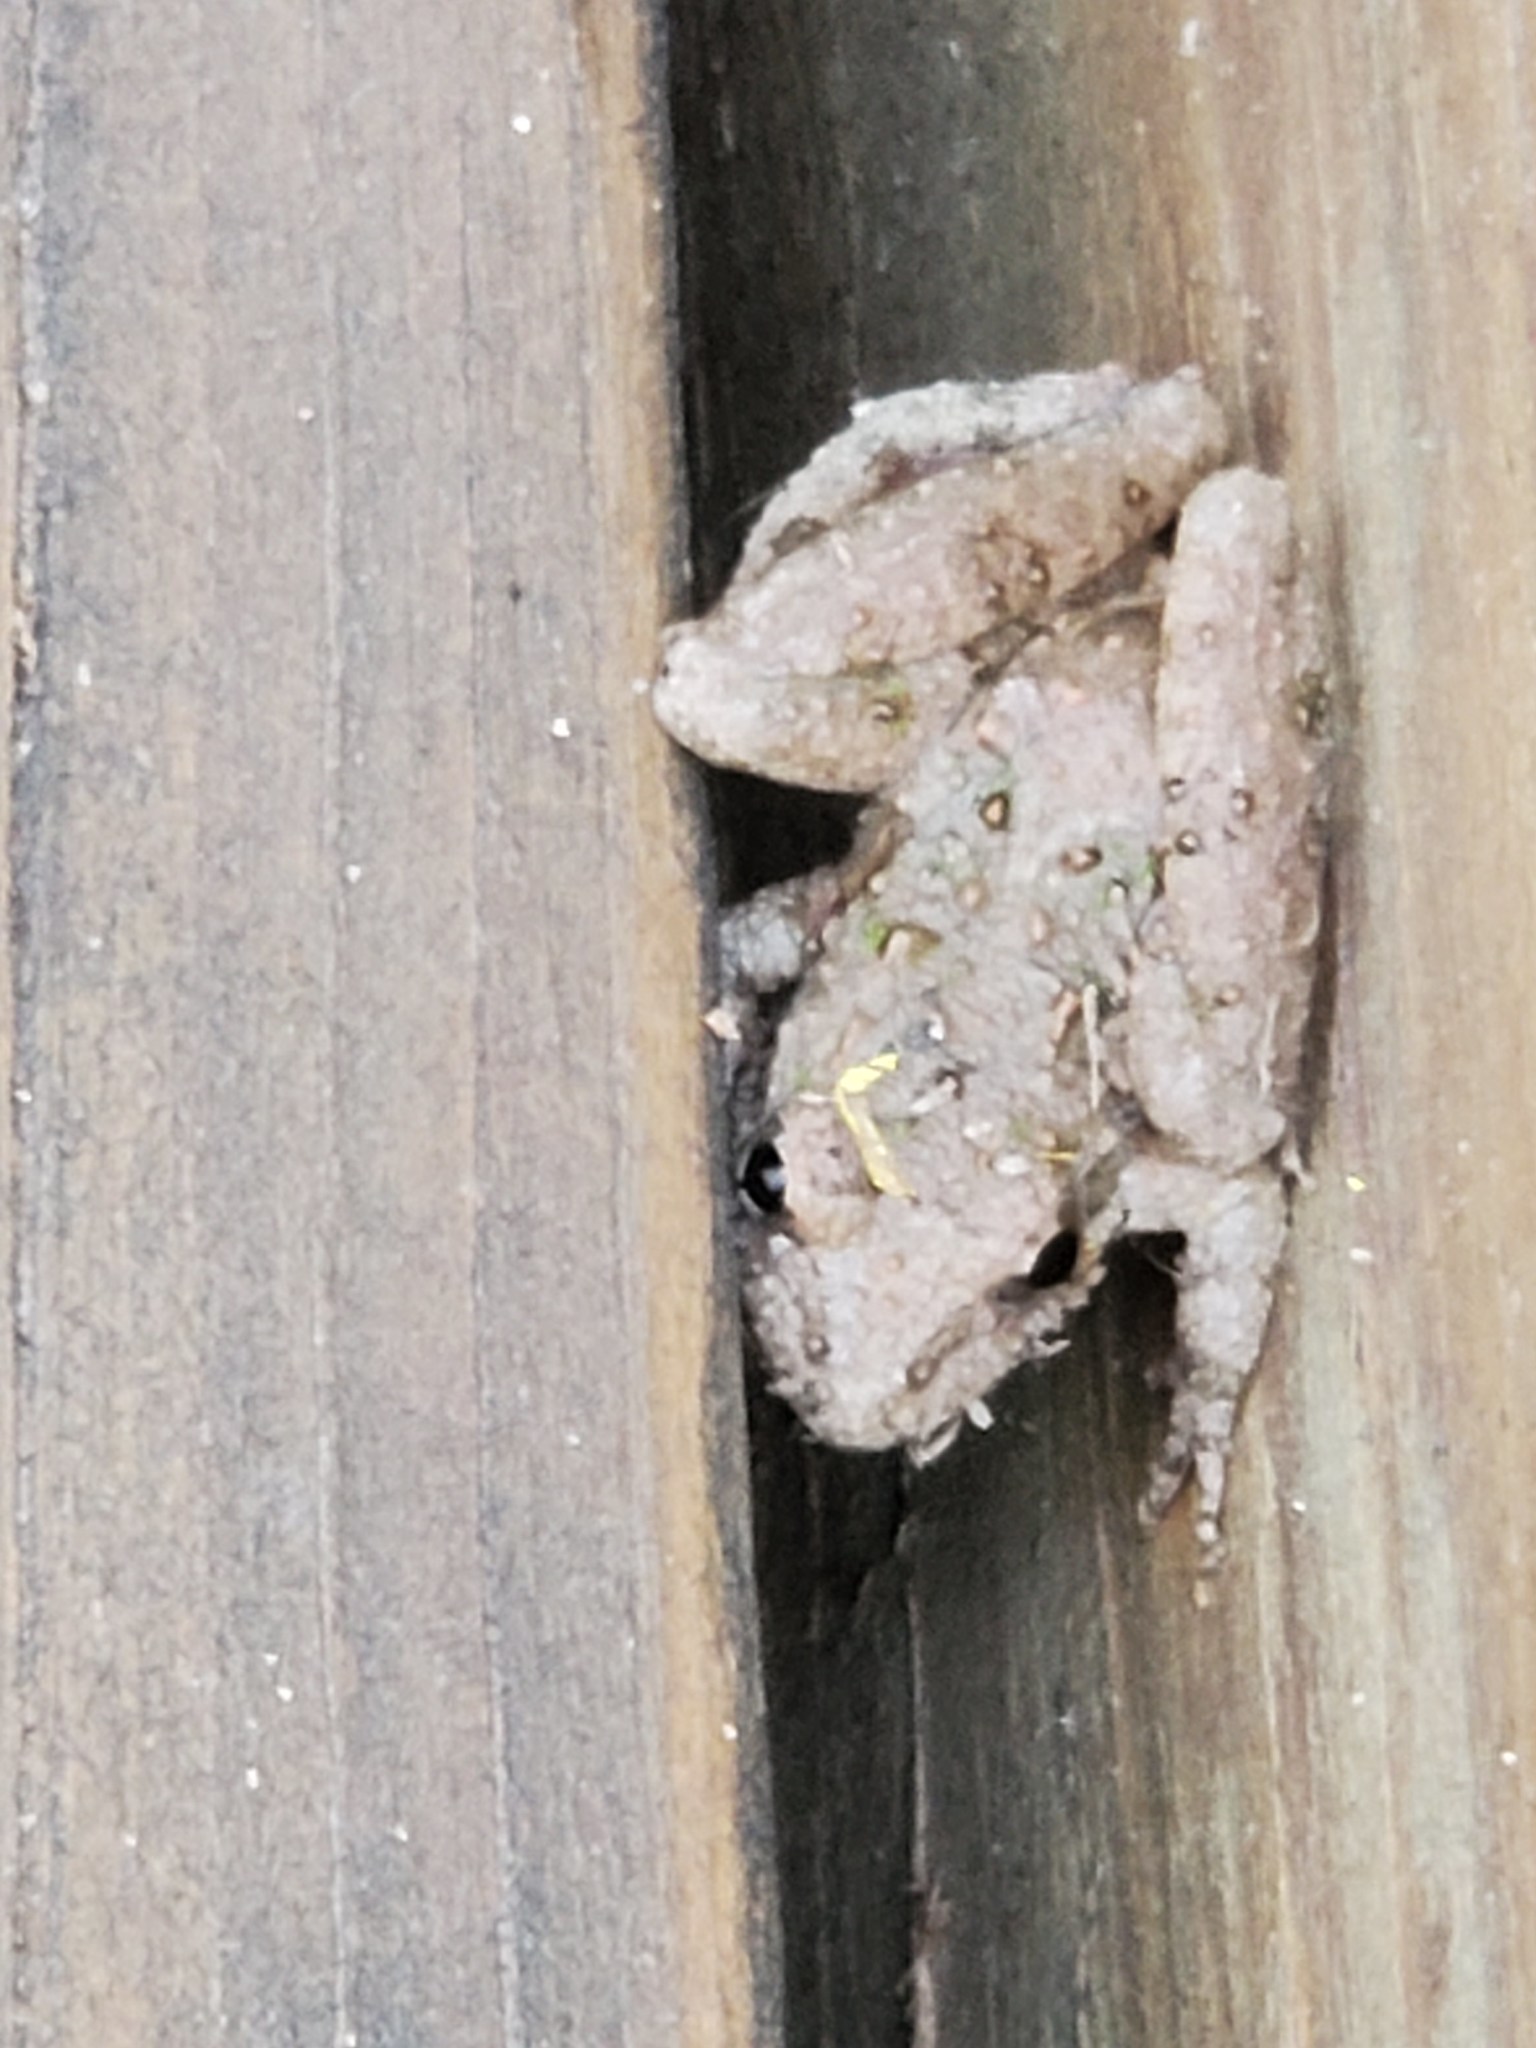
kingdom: Animalia
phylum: Chordata
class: Amphibia
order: Anura
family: Hylidae
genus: Acris
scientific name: Acris blanchardi
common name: Blanchard's cricket frog
